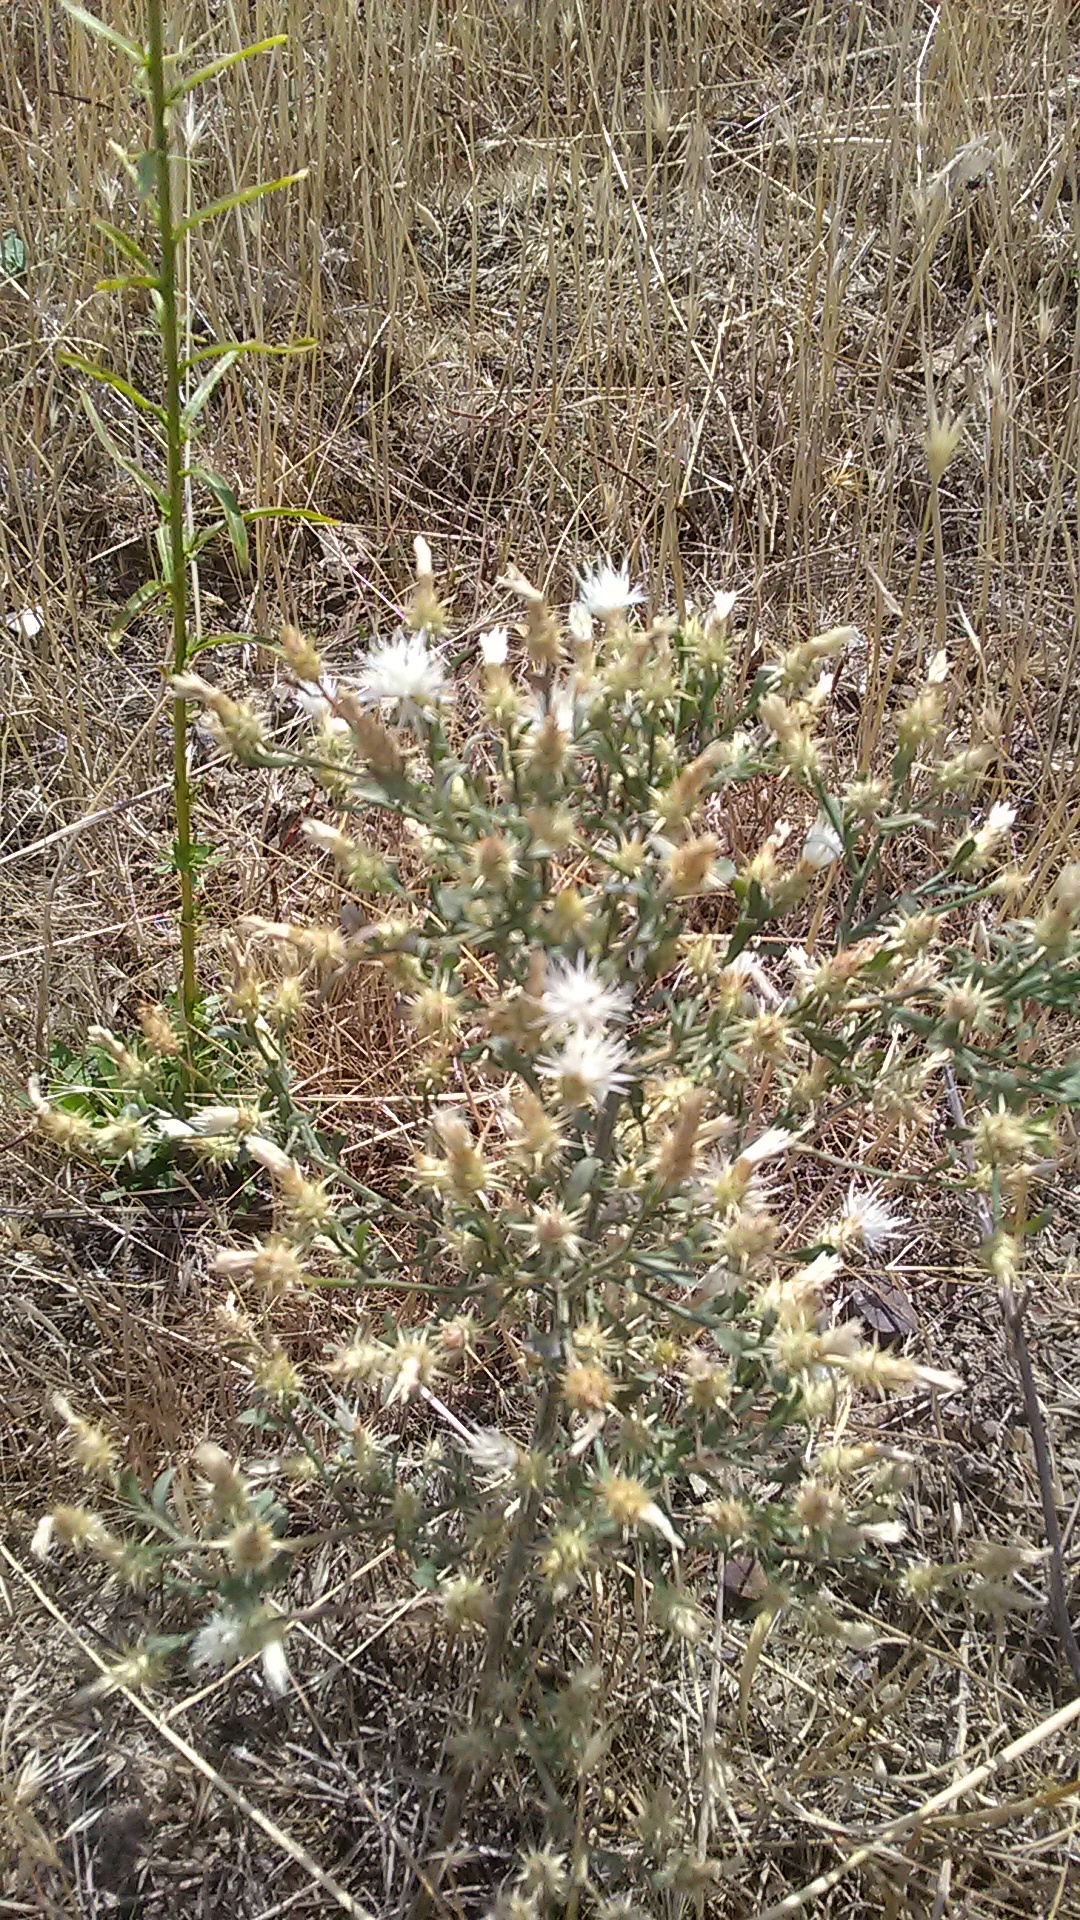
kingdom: Plantae
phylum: Tracheophyta
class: Magnoliopsida
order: Asterales
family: Asteraceae
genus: Centaurea
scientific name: Centaurea diffusa
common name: Diffuse knapweed
